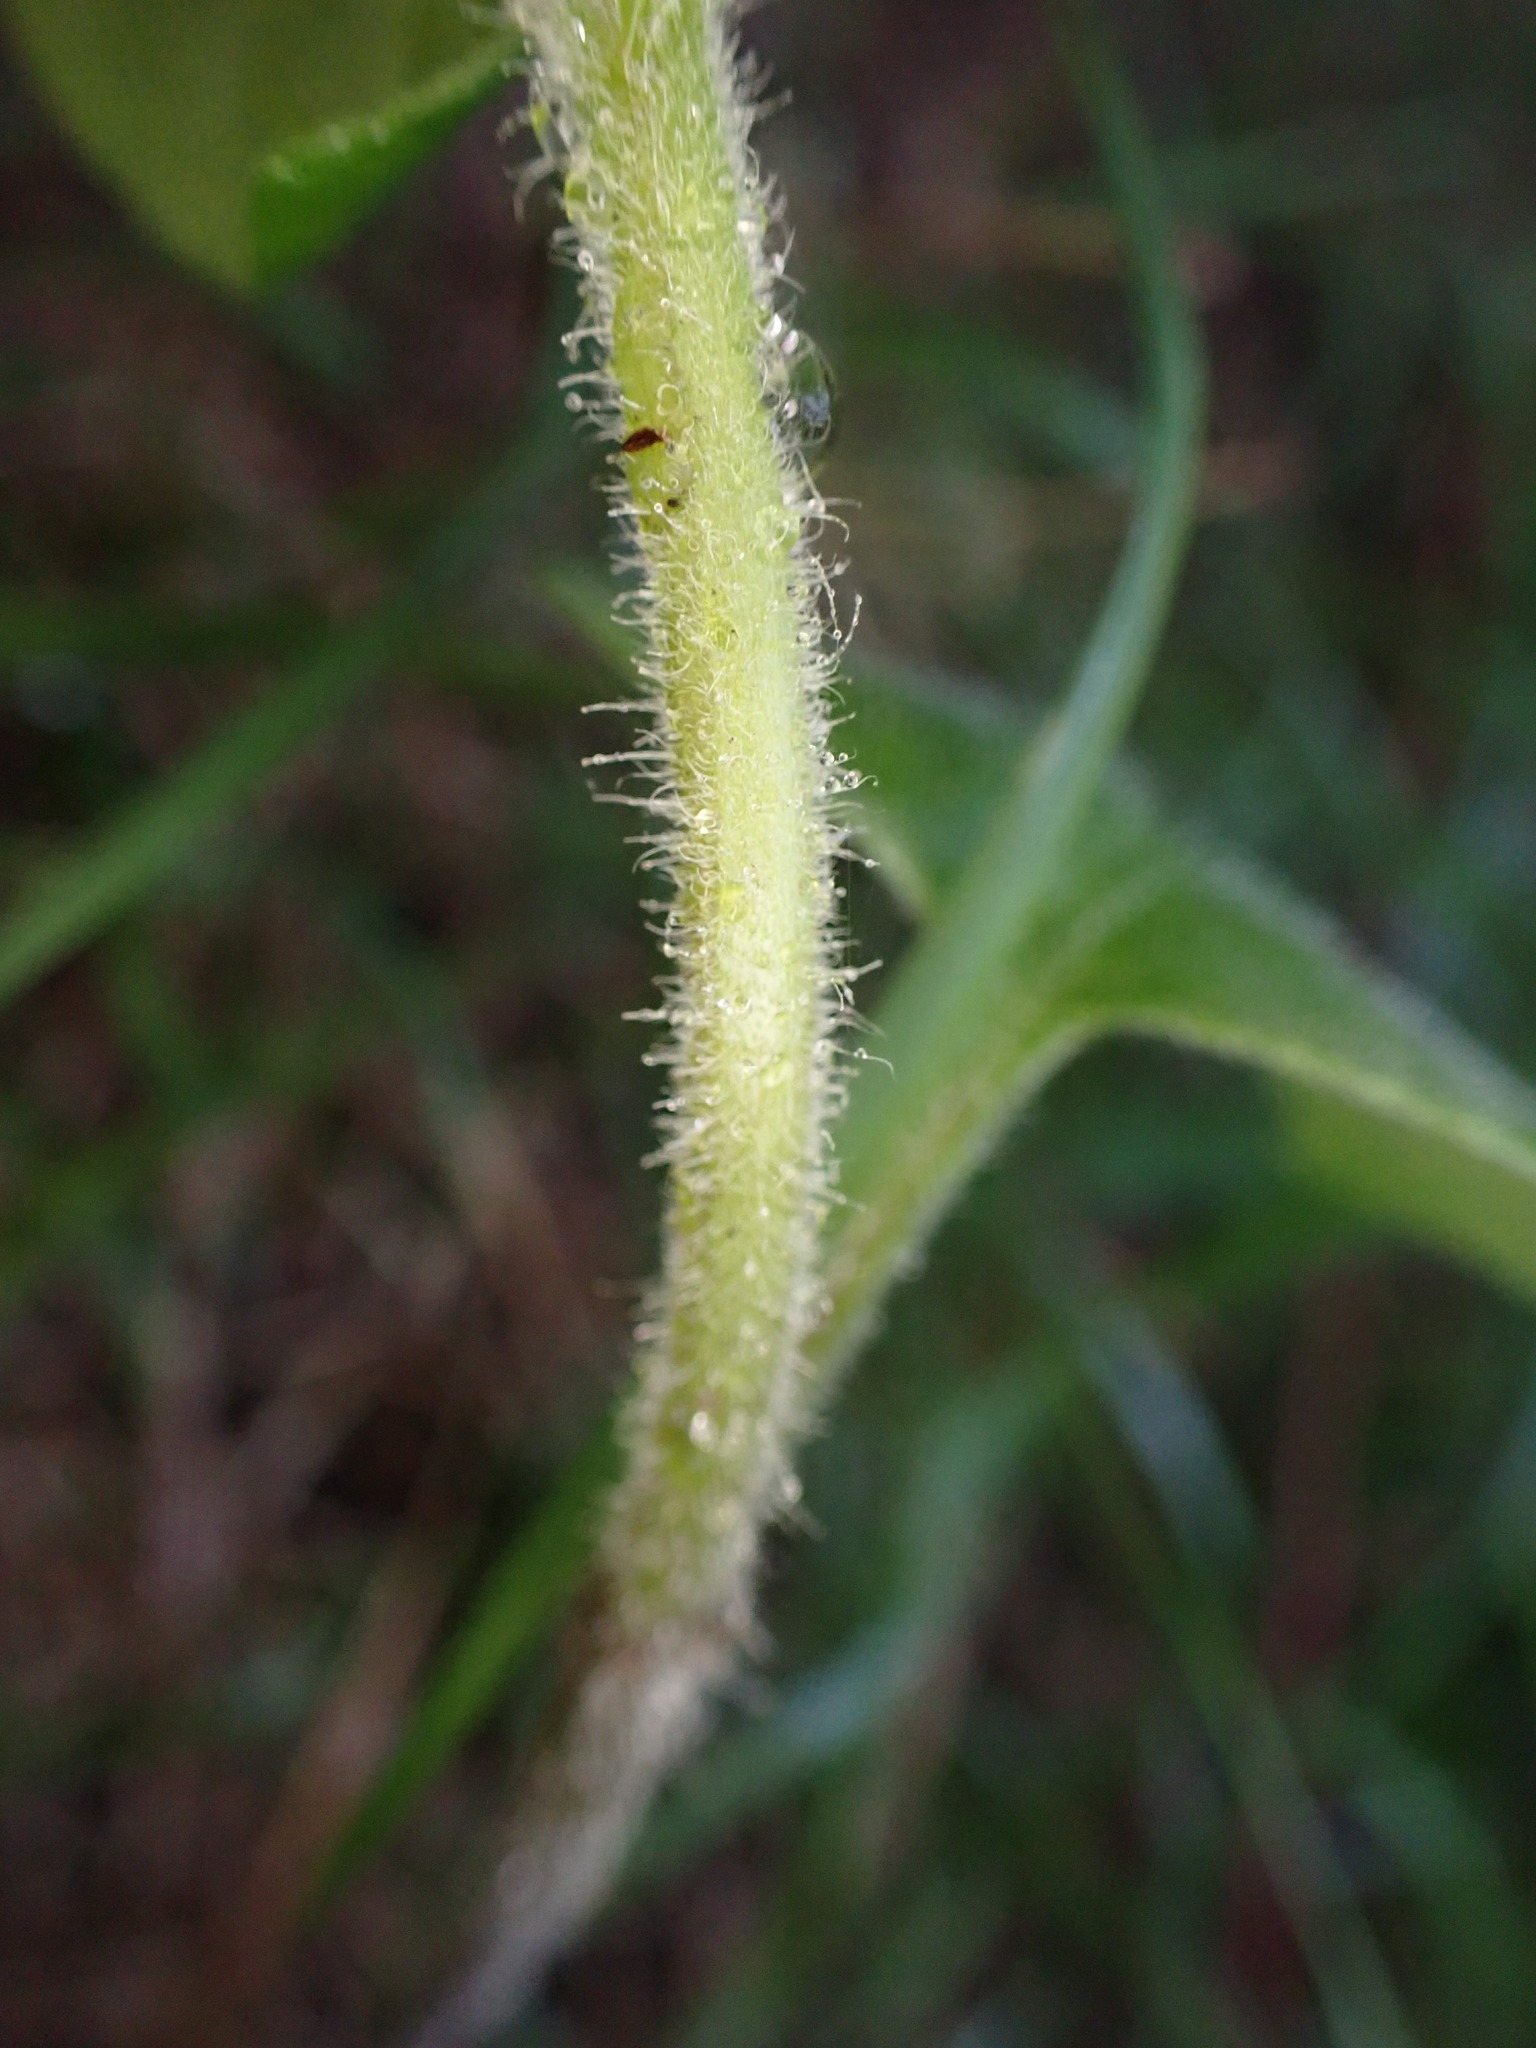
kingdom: Plantae
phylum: Tracheophyta
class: Magnoliopsida
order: Solanales
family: Solanaceae
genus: Salpichroa
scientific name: Salpichroa origanifolia
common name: Lily-of-the-valley-vine
